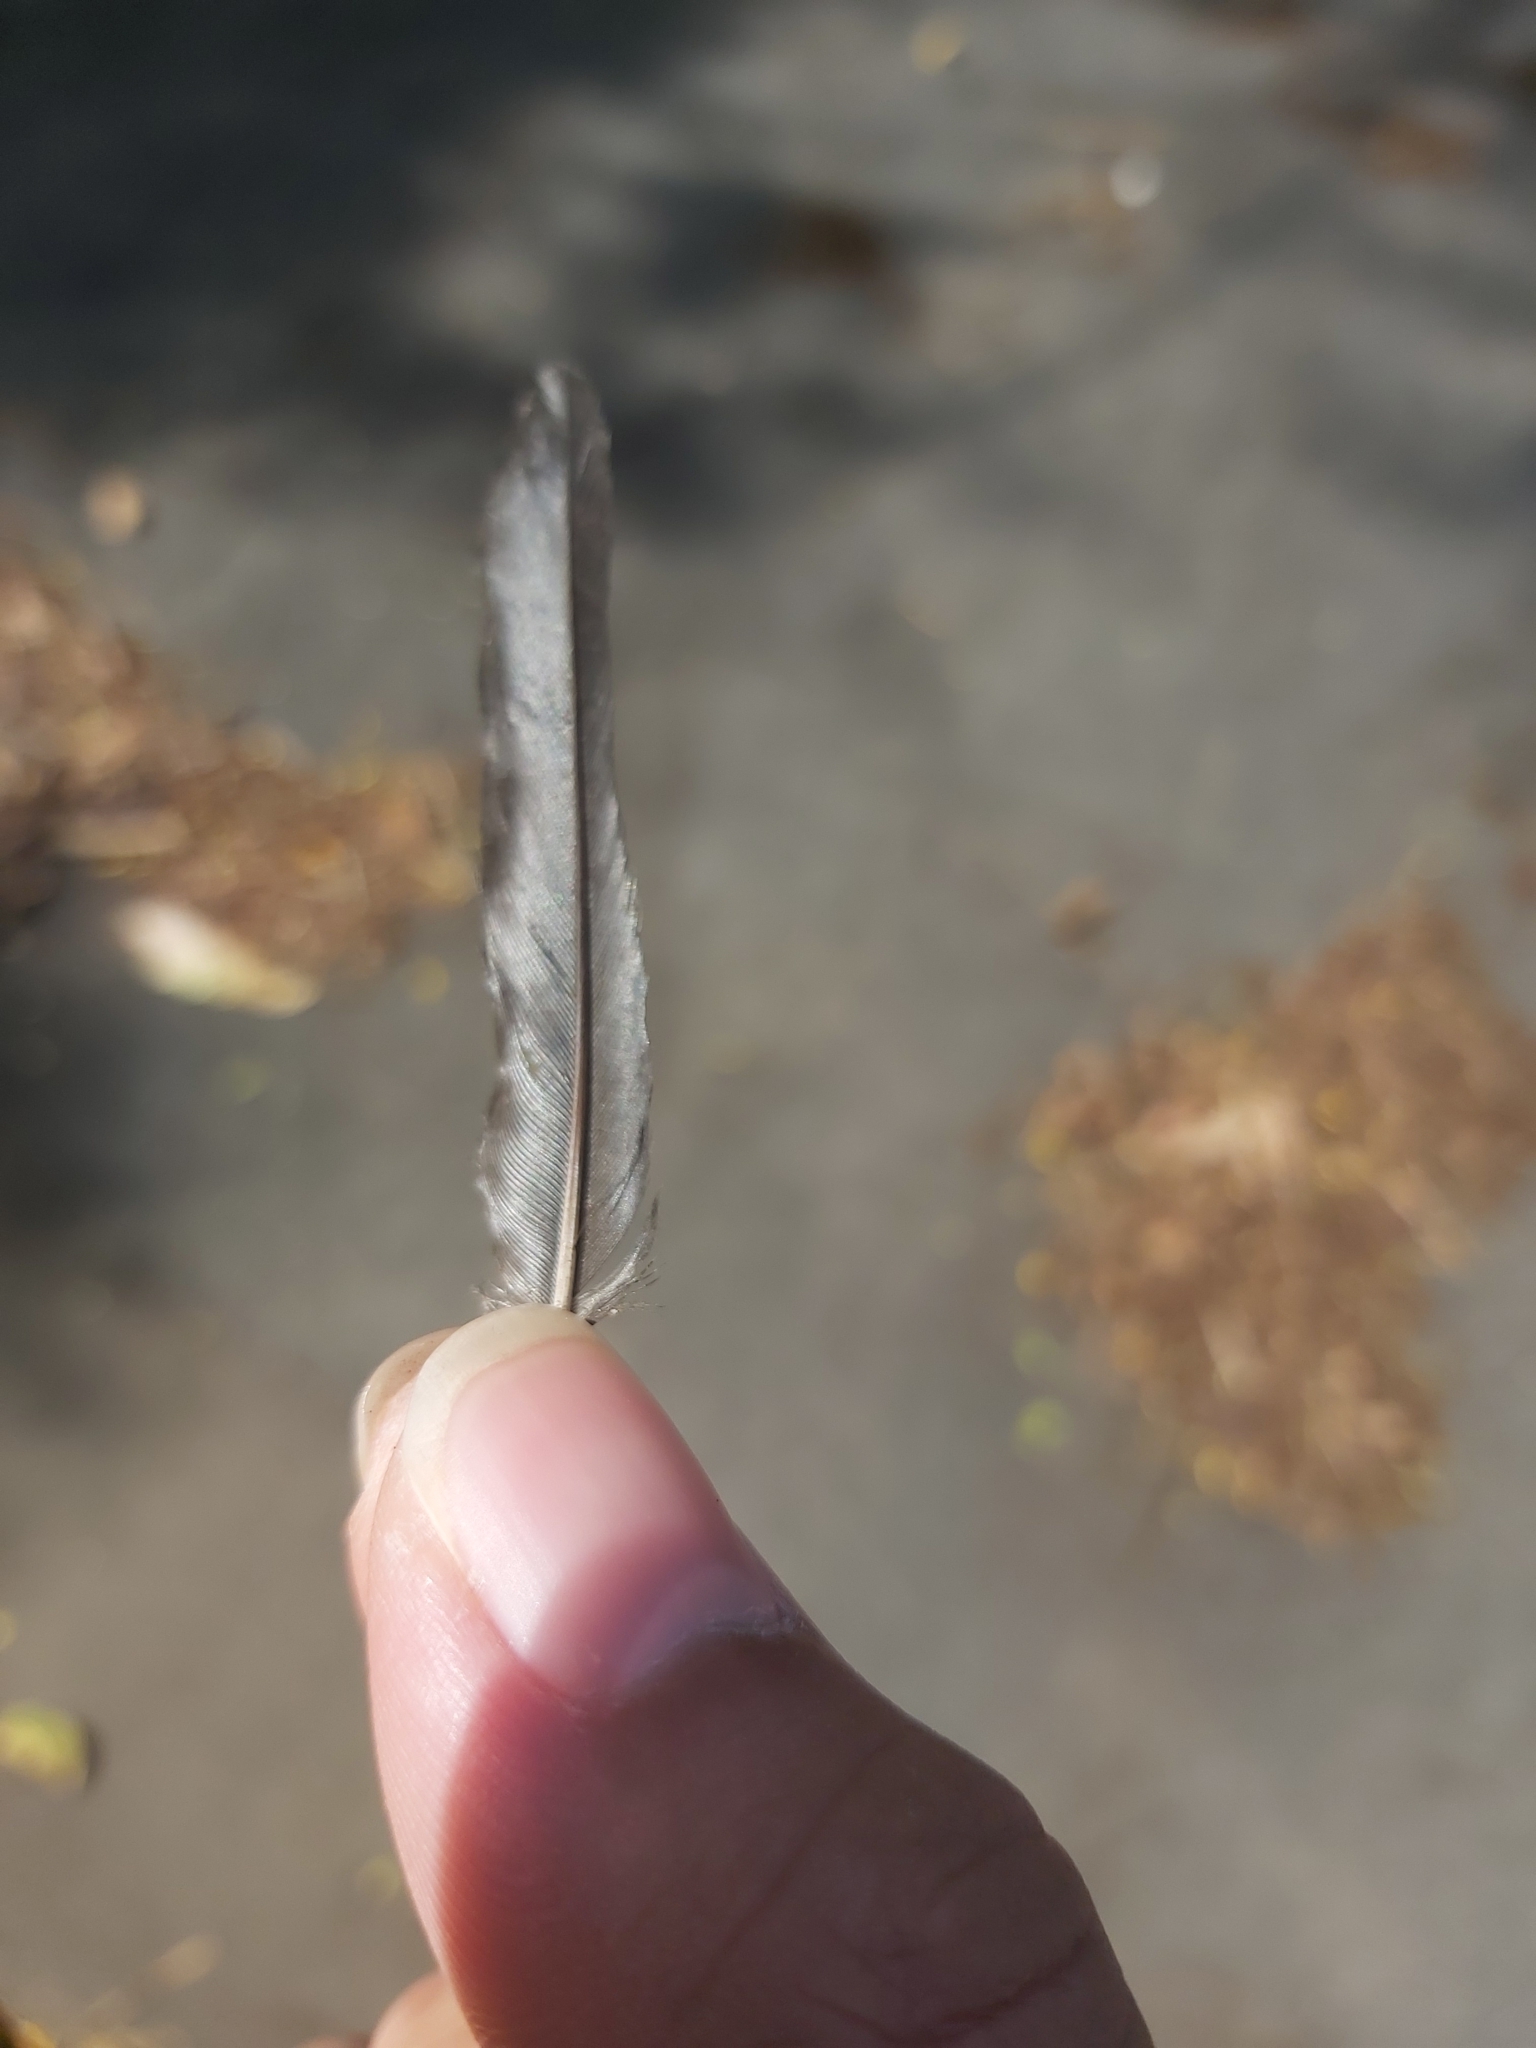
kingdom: Animalia
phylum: Chordata
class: Aves
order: Passeriformes
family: Sturnidae
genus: Aplonis
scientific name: Aplonis metallica
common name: Metallic starling
